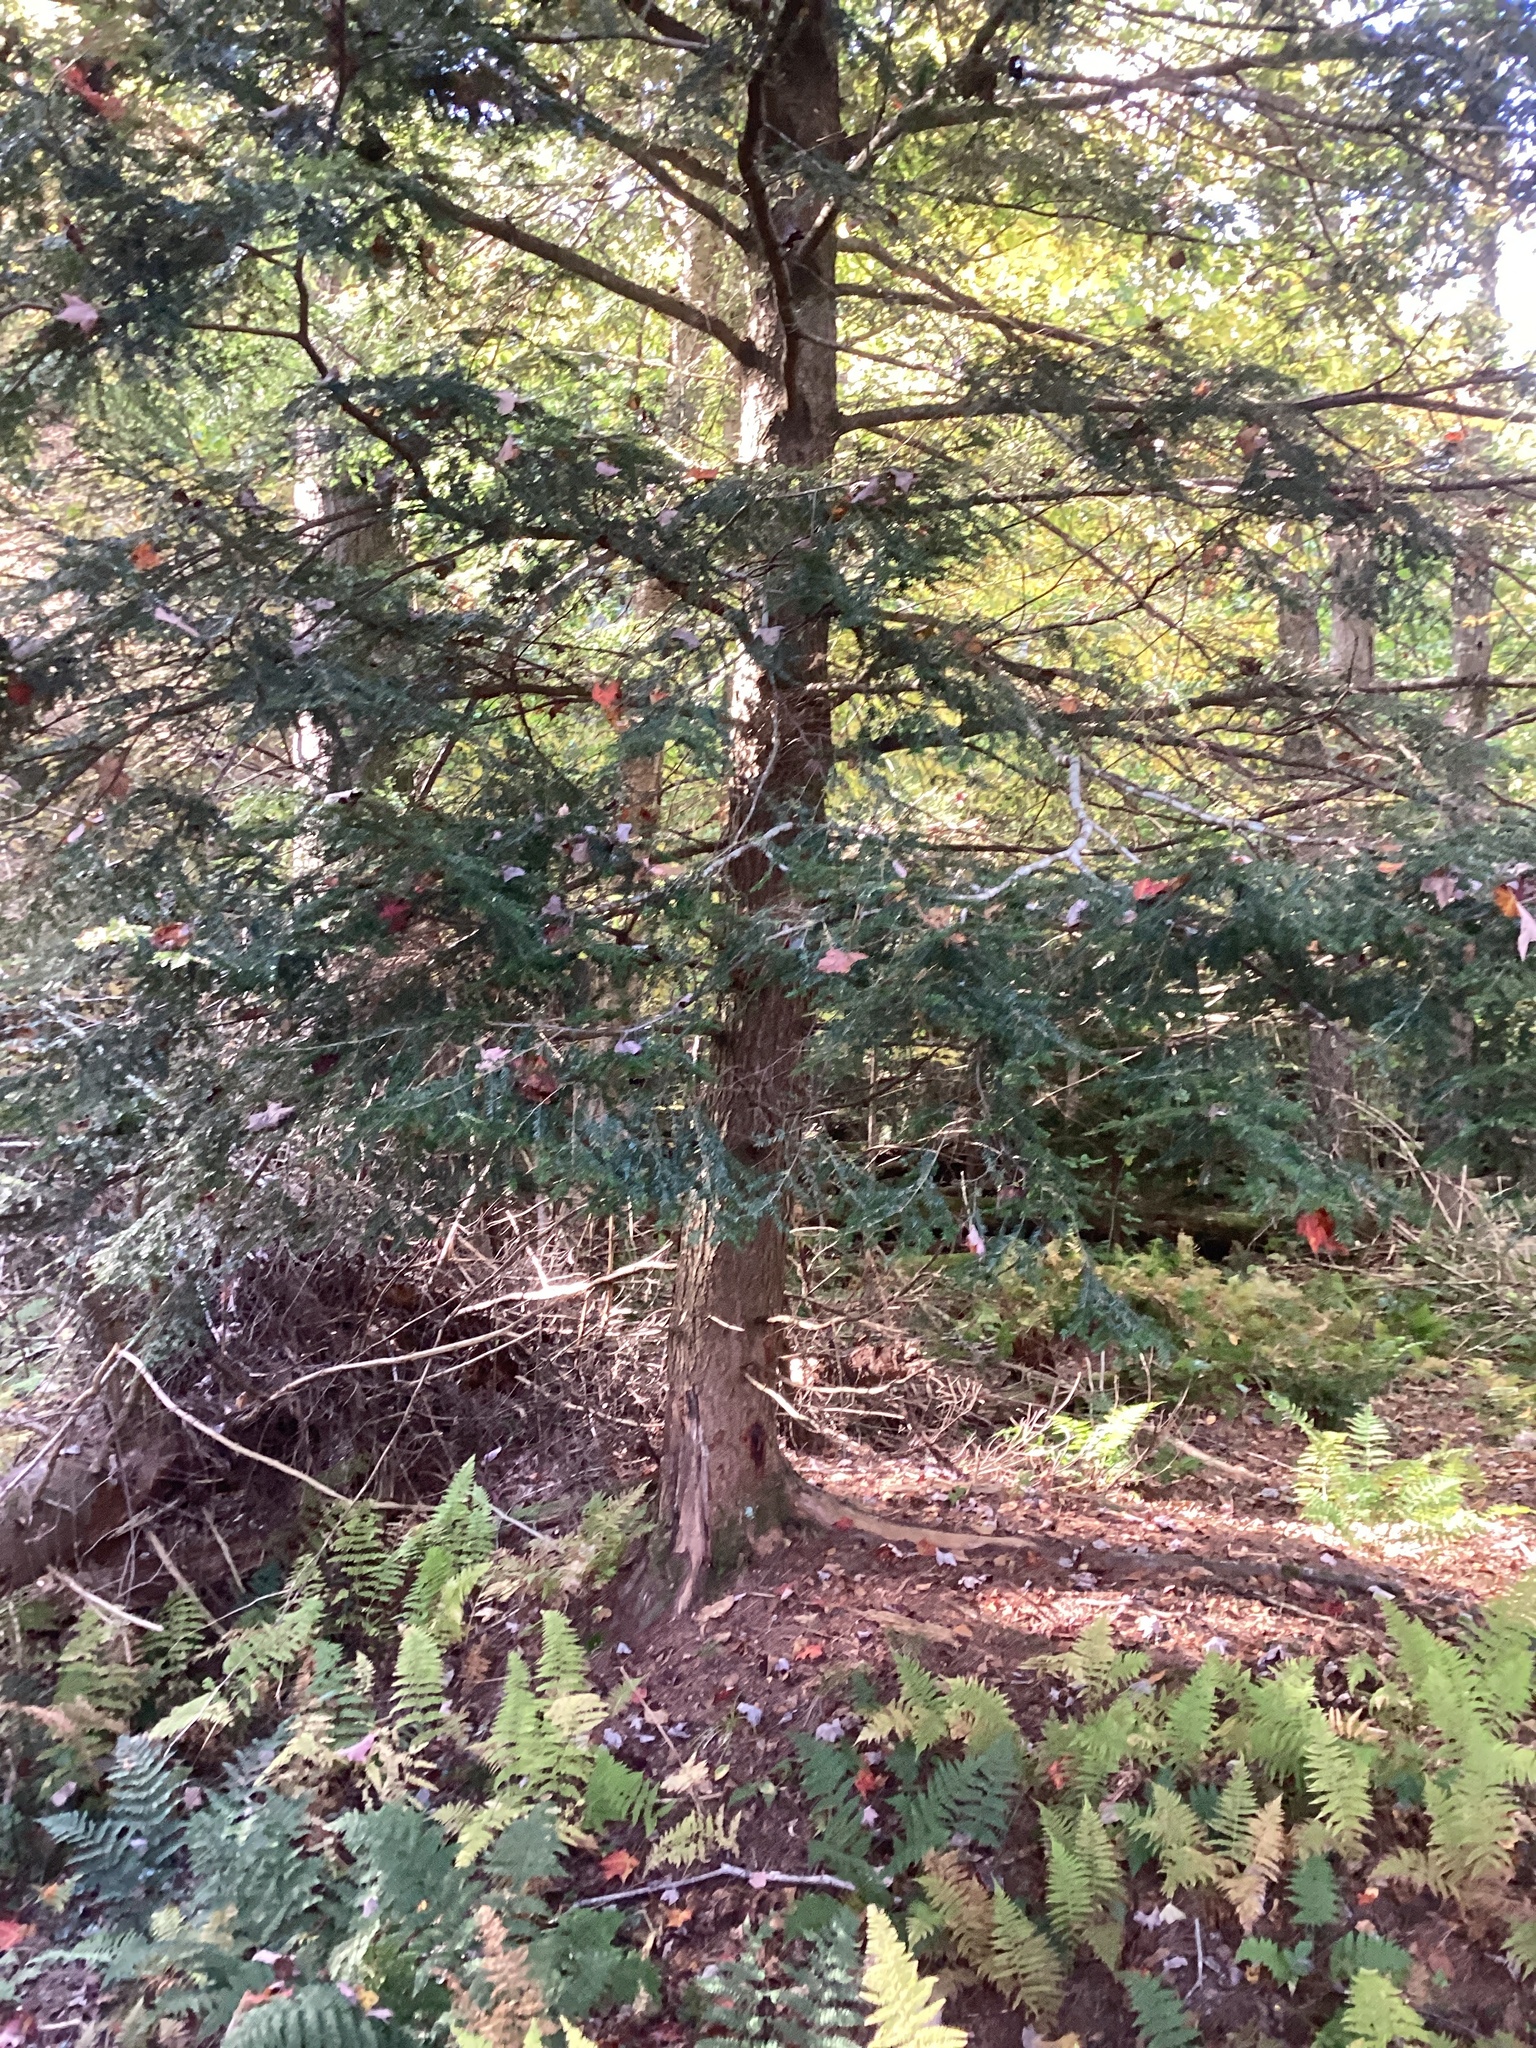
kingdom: Plantae
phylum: Tracheophyta
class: Pinopsida
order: Pinales
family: Pinaceae
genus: Tsuga
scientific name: Tsuga canadensis
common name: Eastern hemlock
